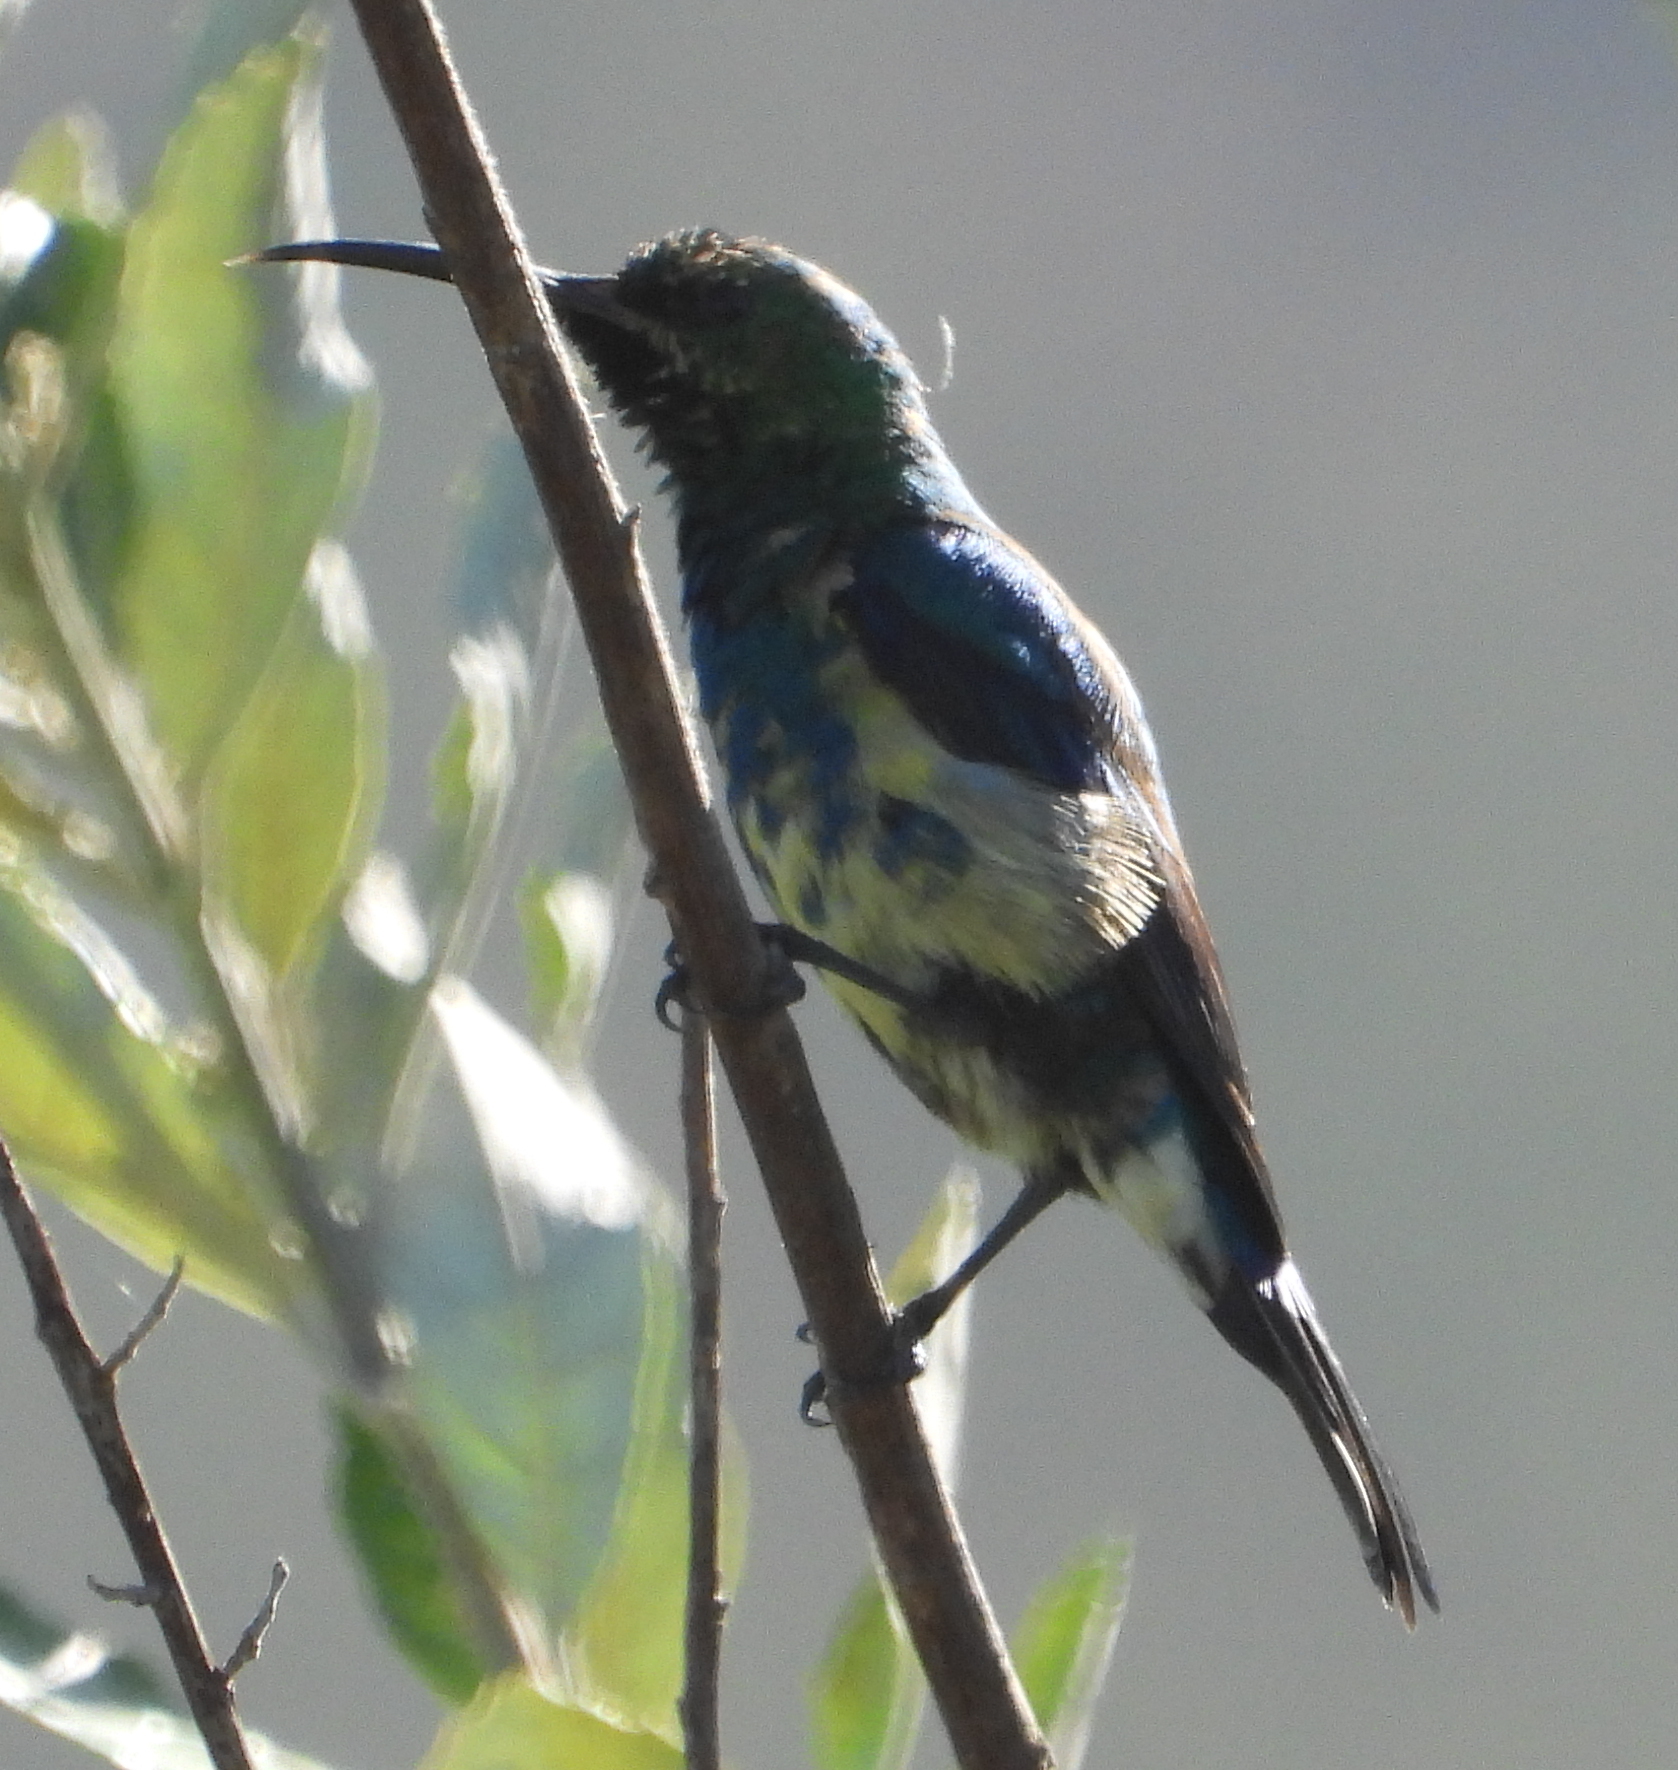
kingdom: Animalia
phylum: Chordata
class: Aves
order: Passeriformes
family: Nectariniidae
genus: Nectarinia
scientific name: Nectarinia famosa
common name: Malachite sunbird
